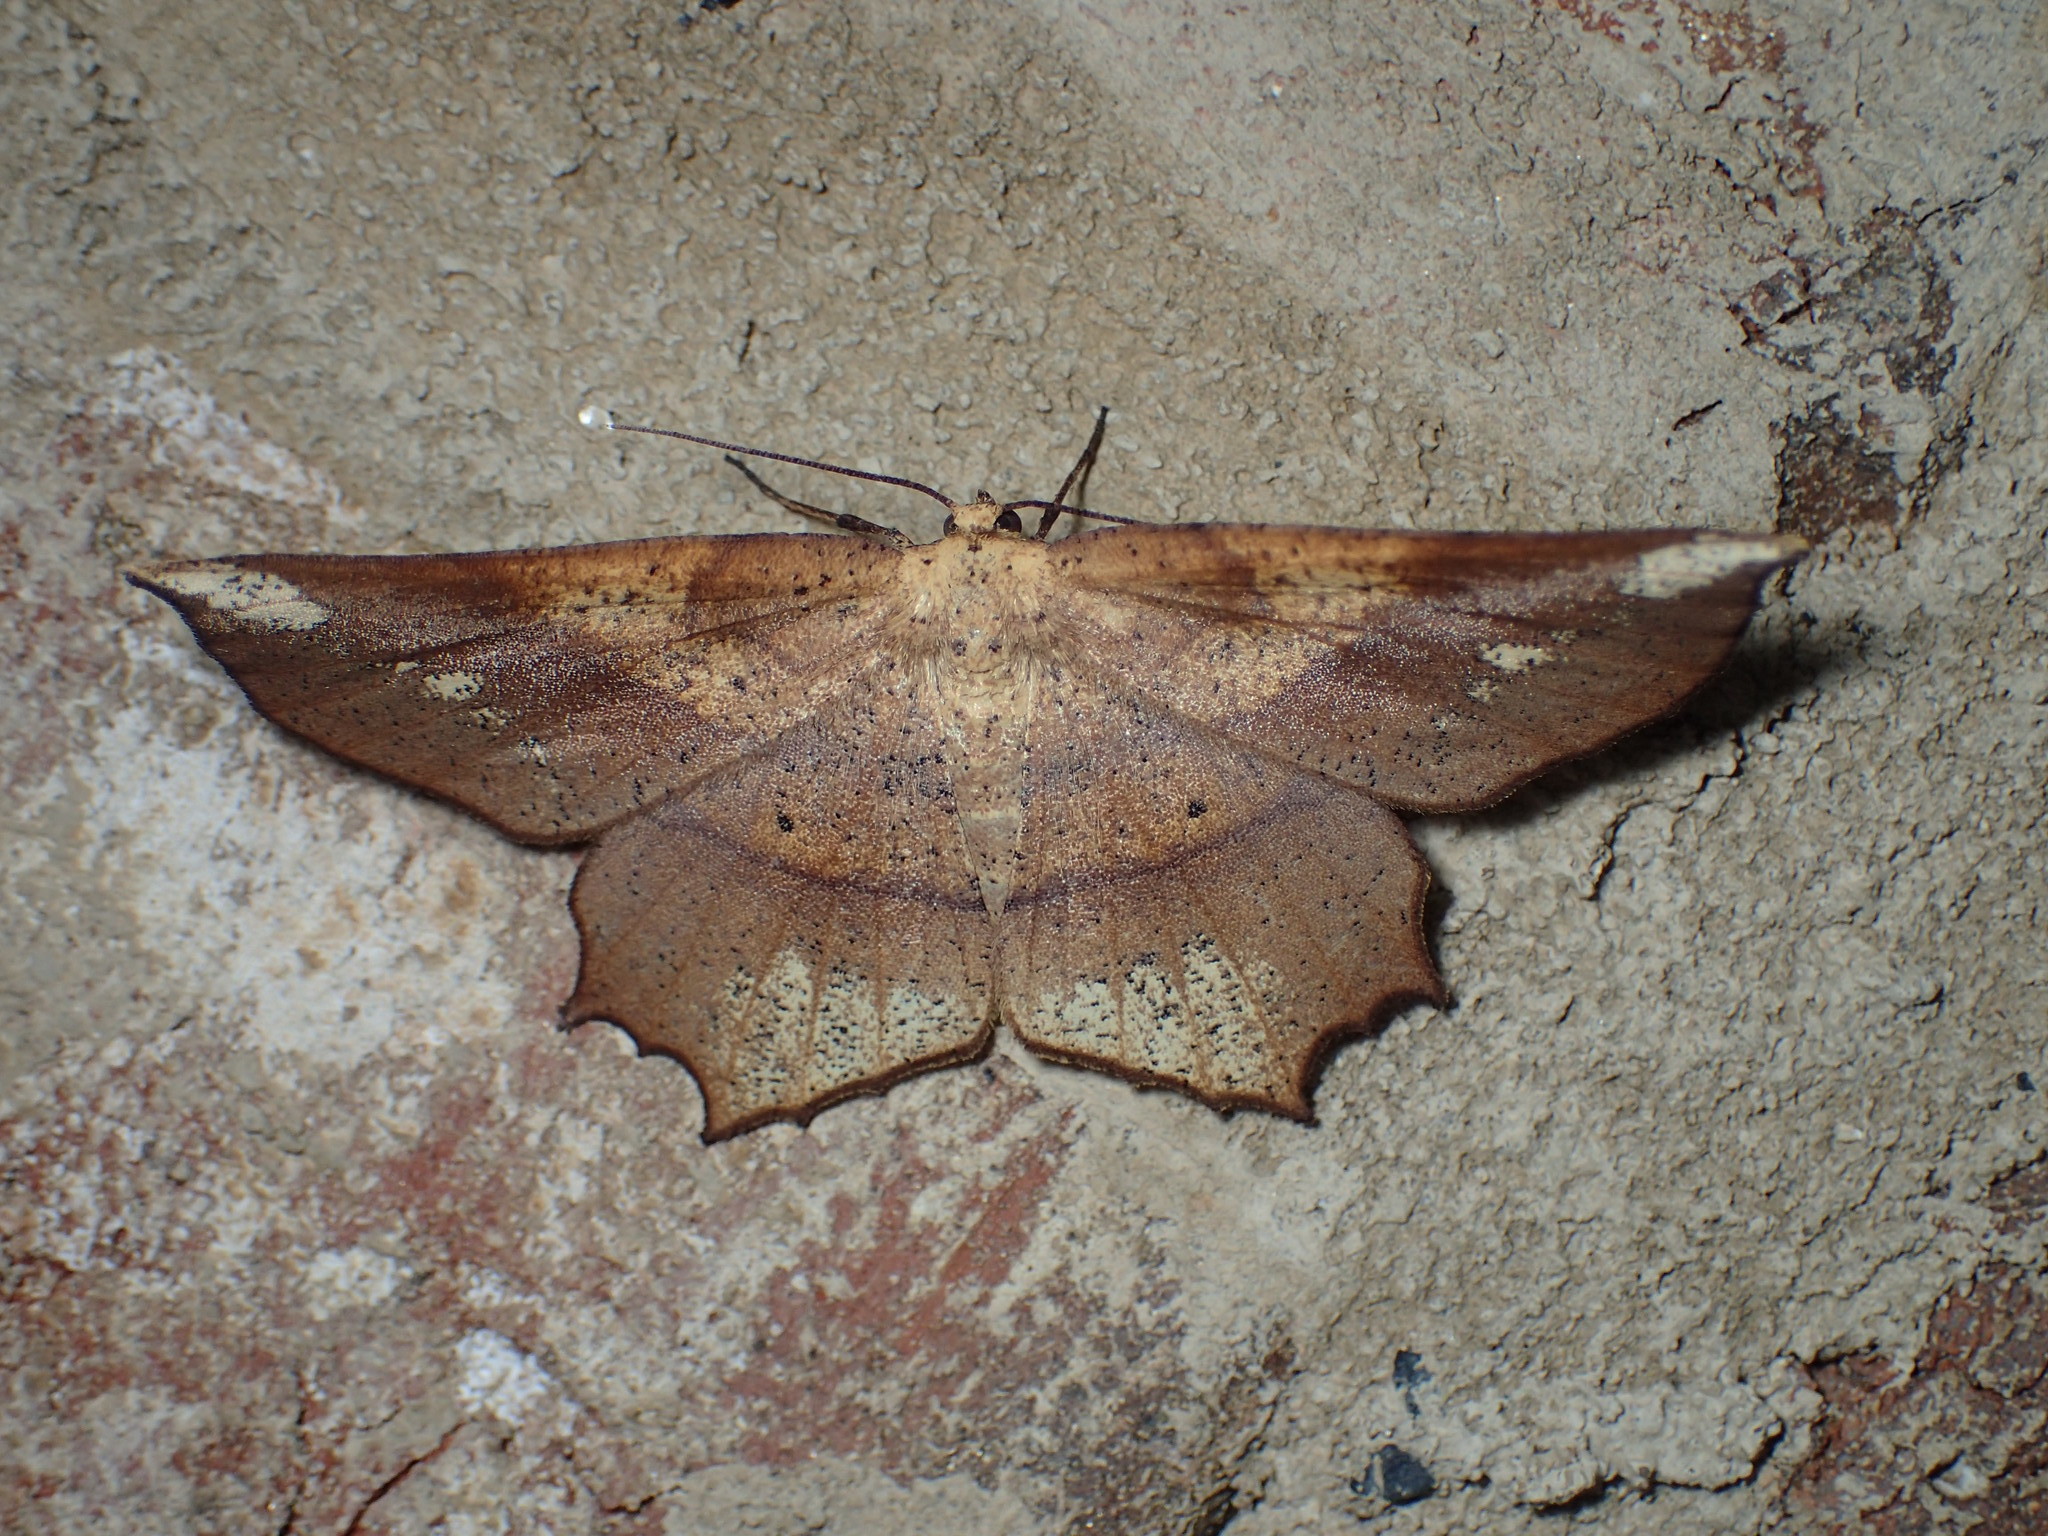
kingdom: Animalia
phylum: Arthropoda
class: Insecta
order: Lepidoptera
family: Geometridae
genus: Euchlaena
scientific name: Euchlaena amoenaria
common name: Deep yellow euchlaena
